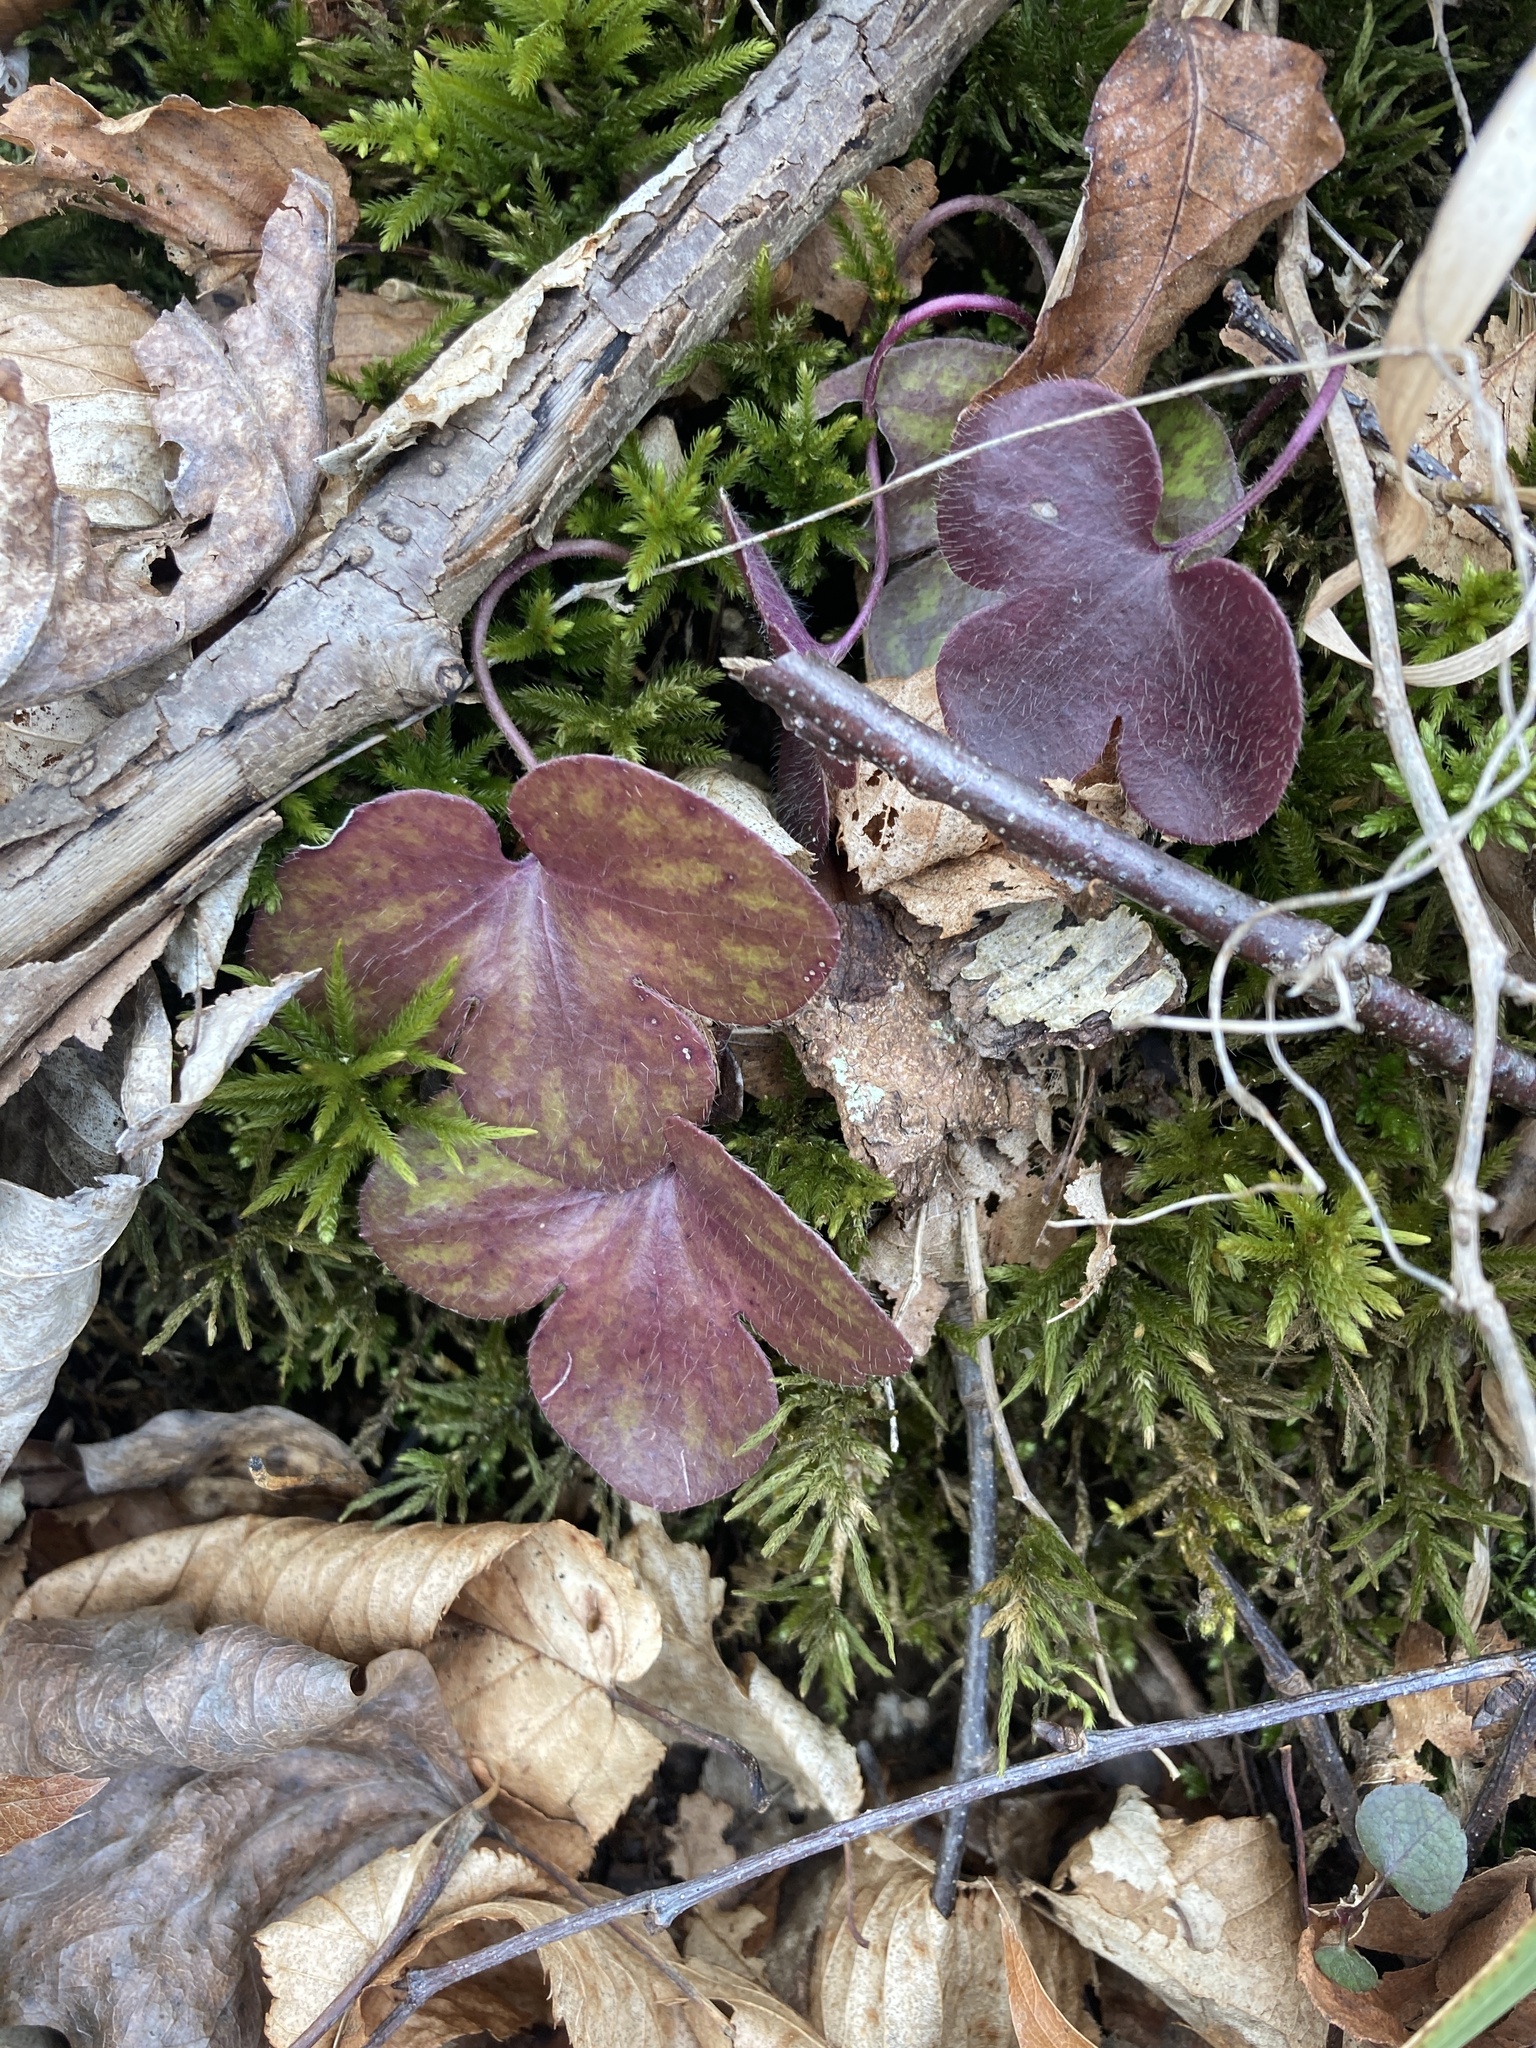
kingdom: Plantae
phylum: Tracheophyta
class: Magnoliopsida
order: Ranunculales
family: Ranunculaceae
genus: Hepatica
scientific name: Hepatica americana
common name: American hepatica
